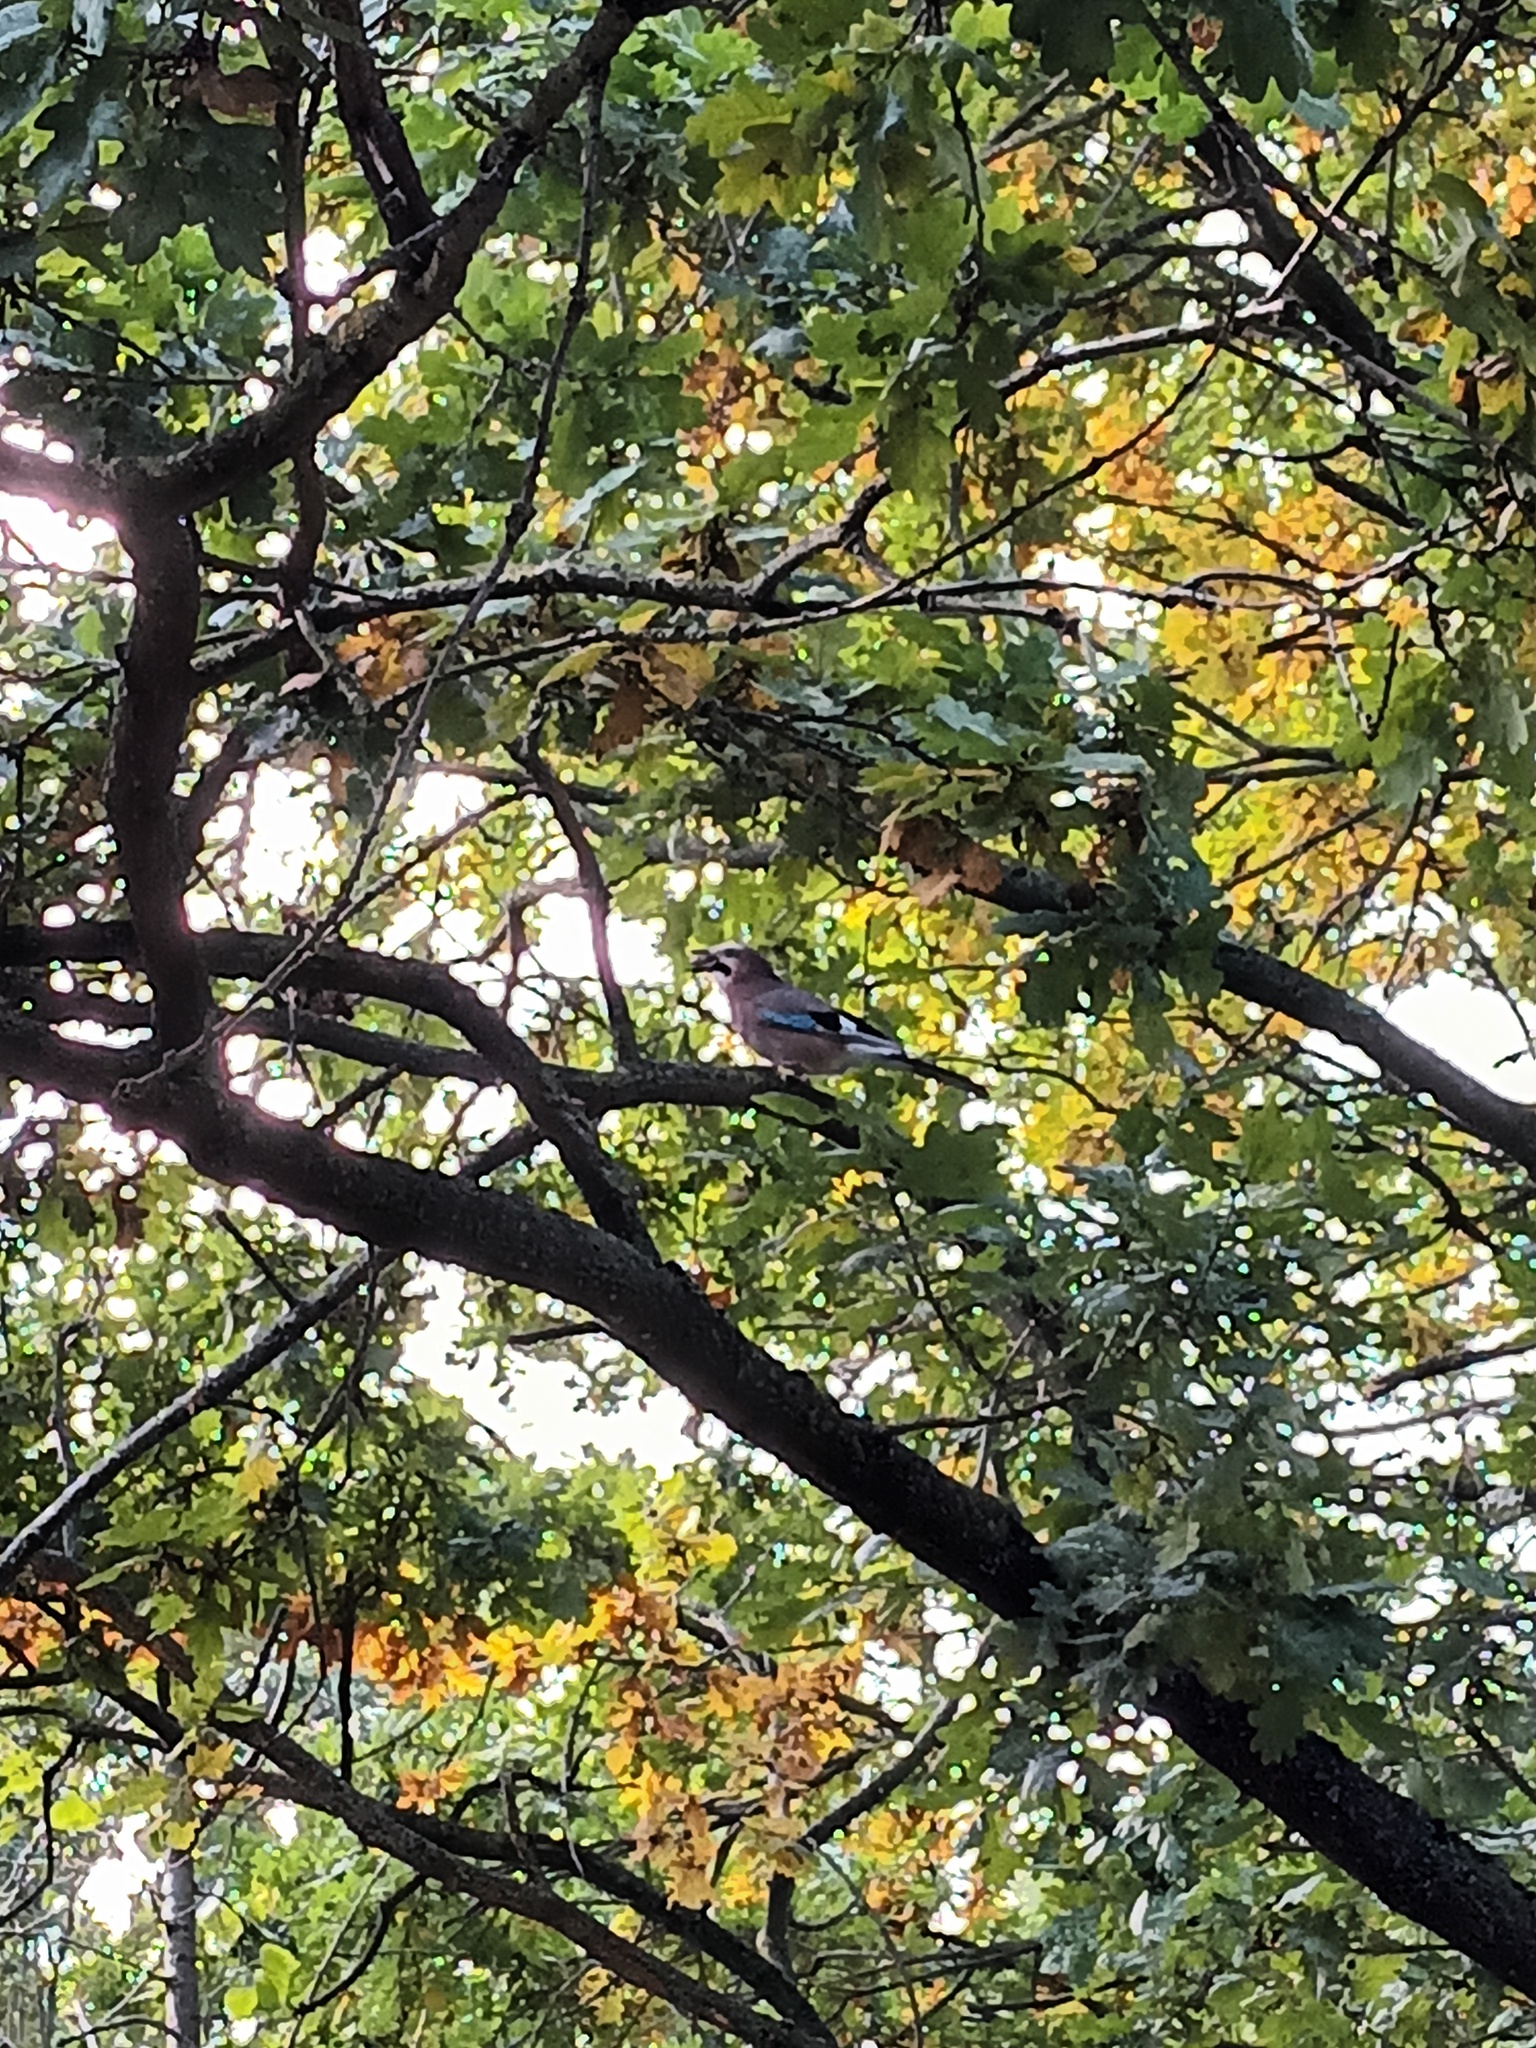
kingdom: Animalia
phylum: Chordata
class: Aves
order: Passeriformes
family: Corvidae
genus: Garrulus
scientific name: Garrulus glandarius
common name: Eurasian jay
